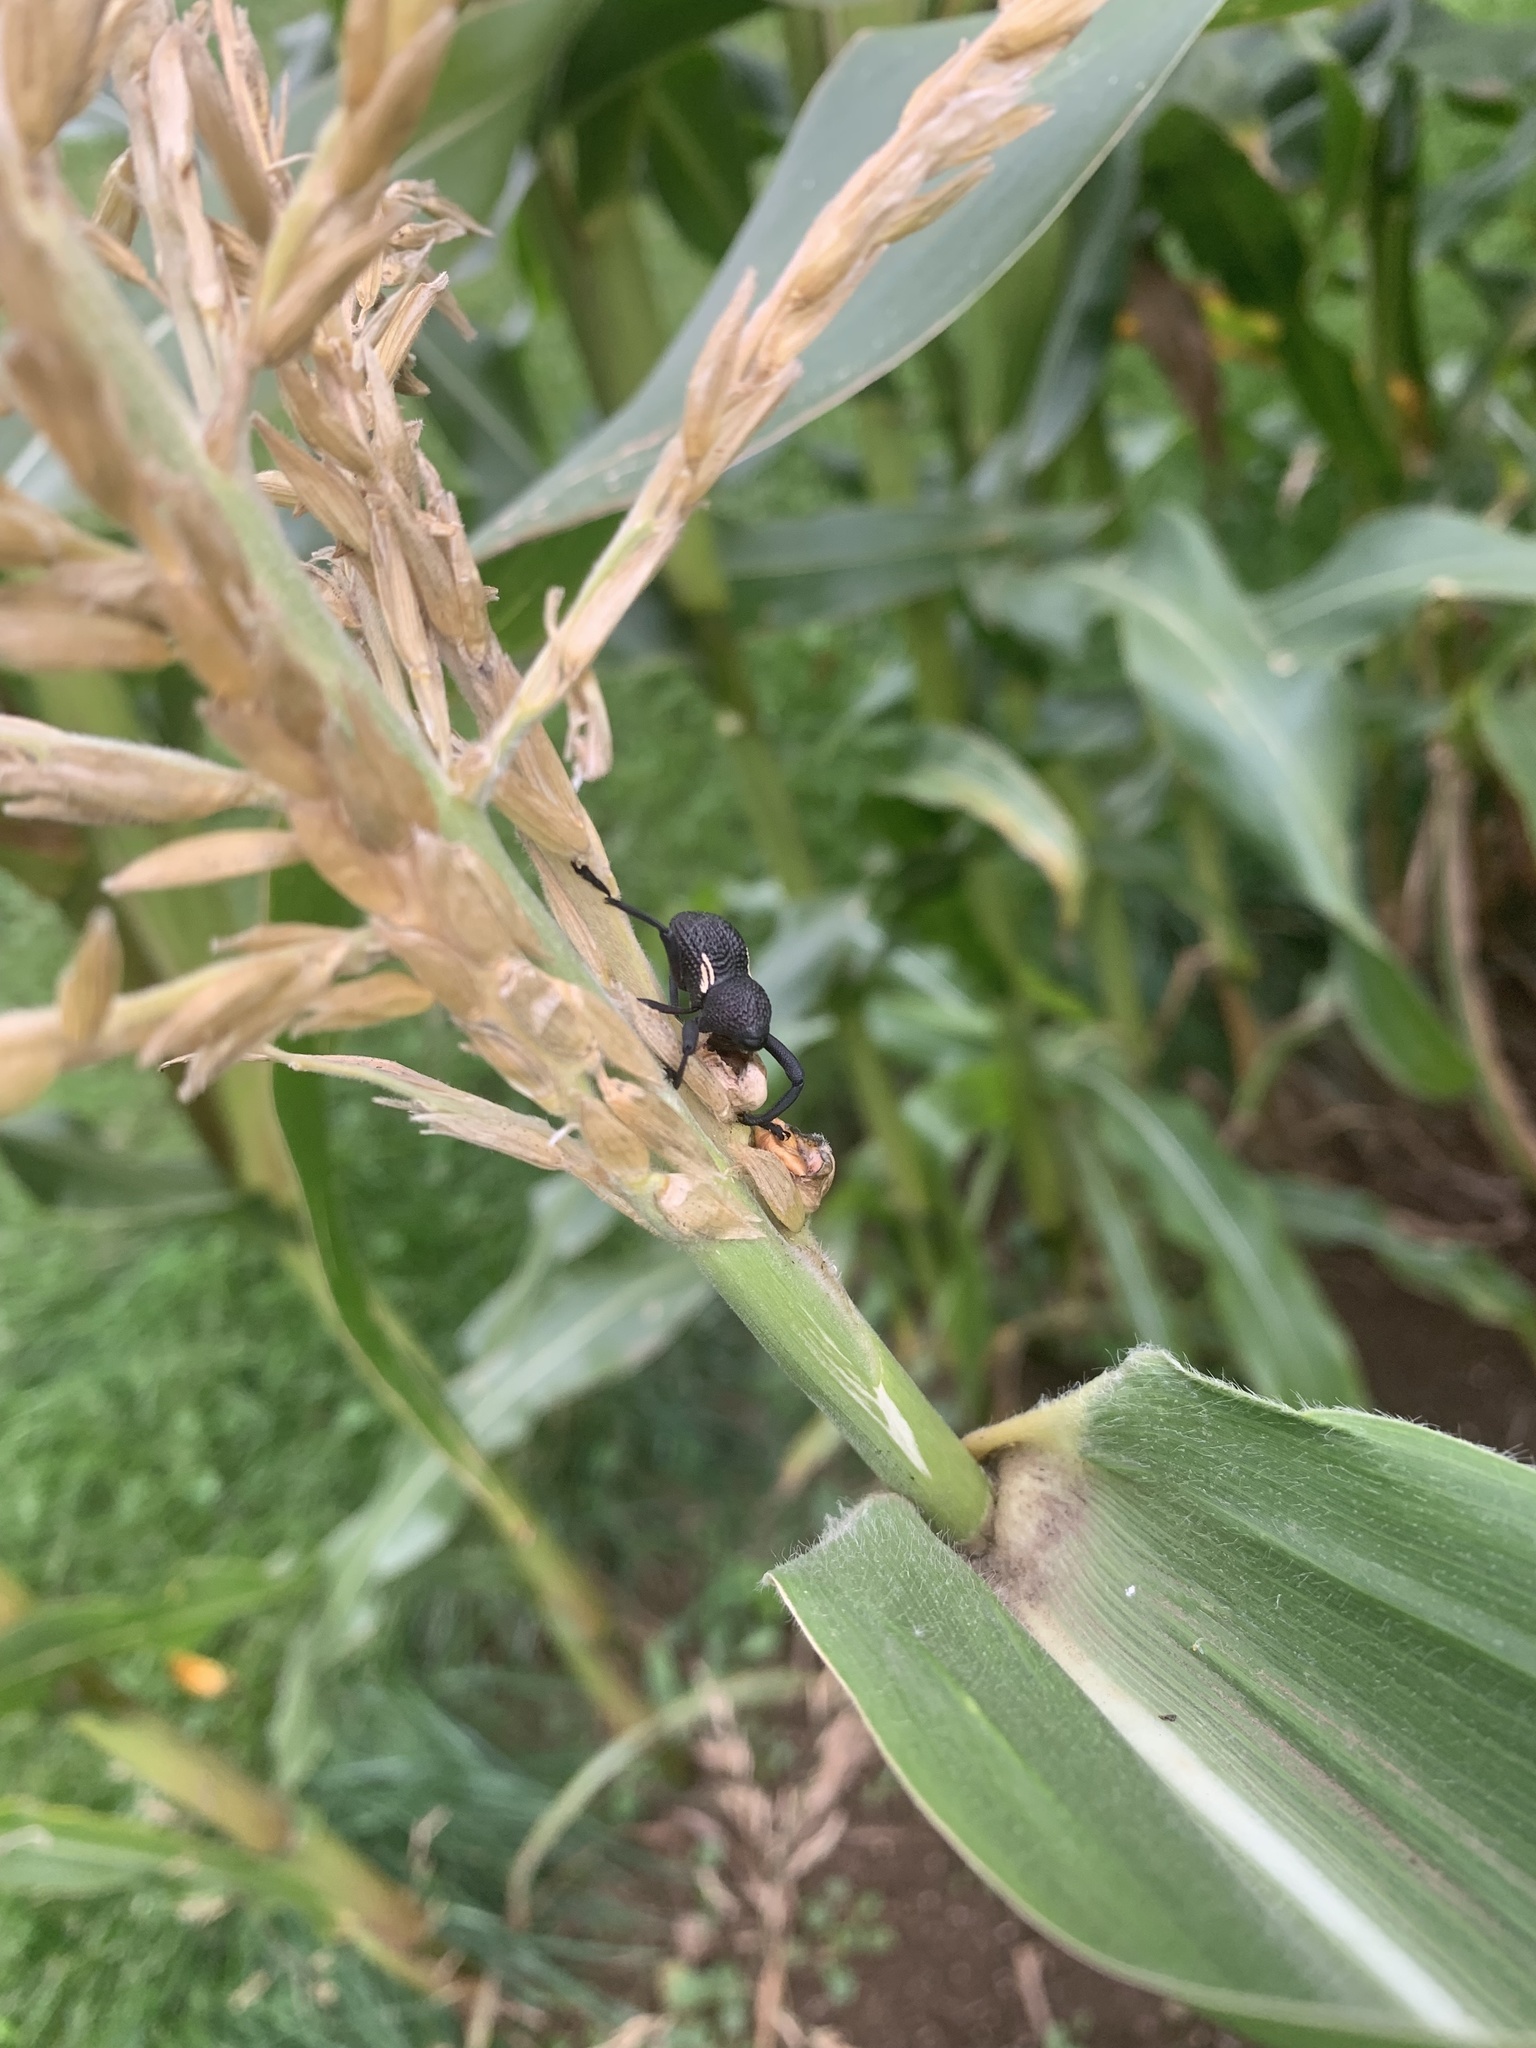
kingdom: Animalia
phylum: Arthropoda
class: Insecta
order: Coleoptera
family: Curculionidae
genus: Rhyephenes
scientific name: Rhyephenes humeralis
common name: Araè±ita chilena del pino
